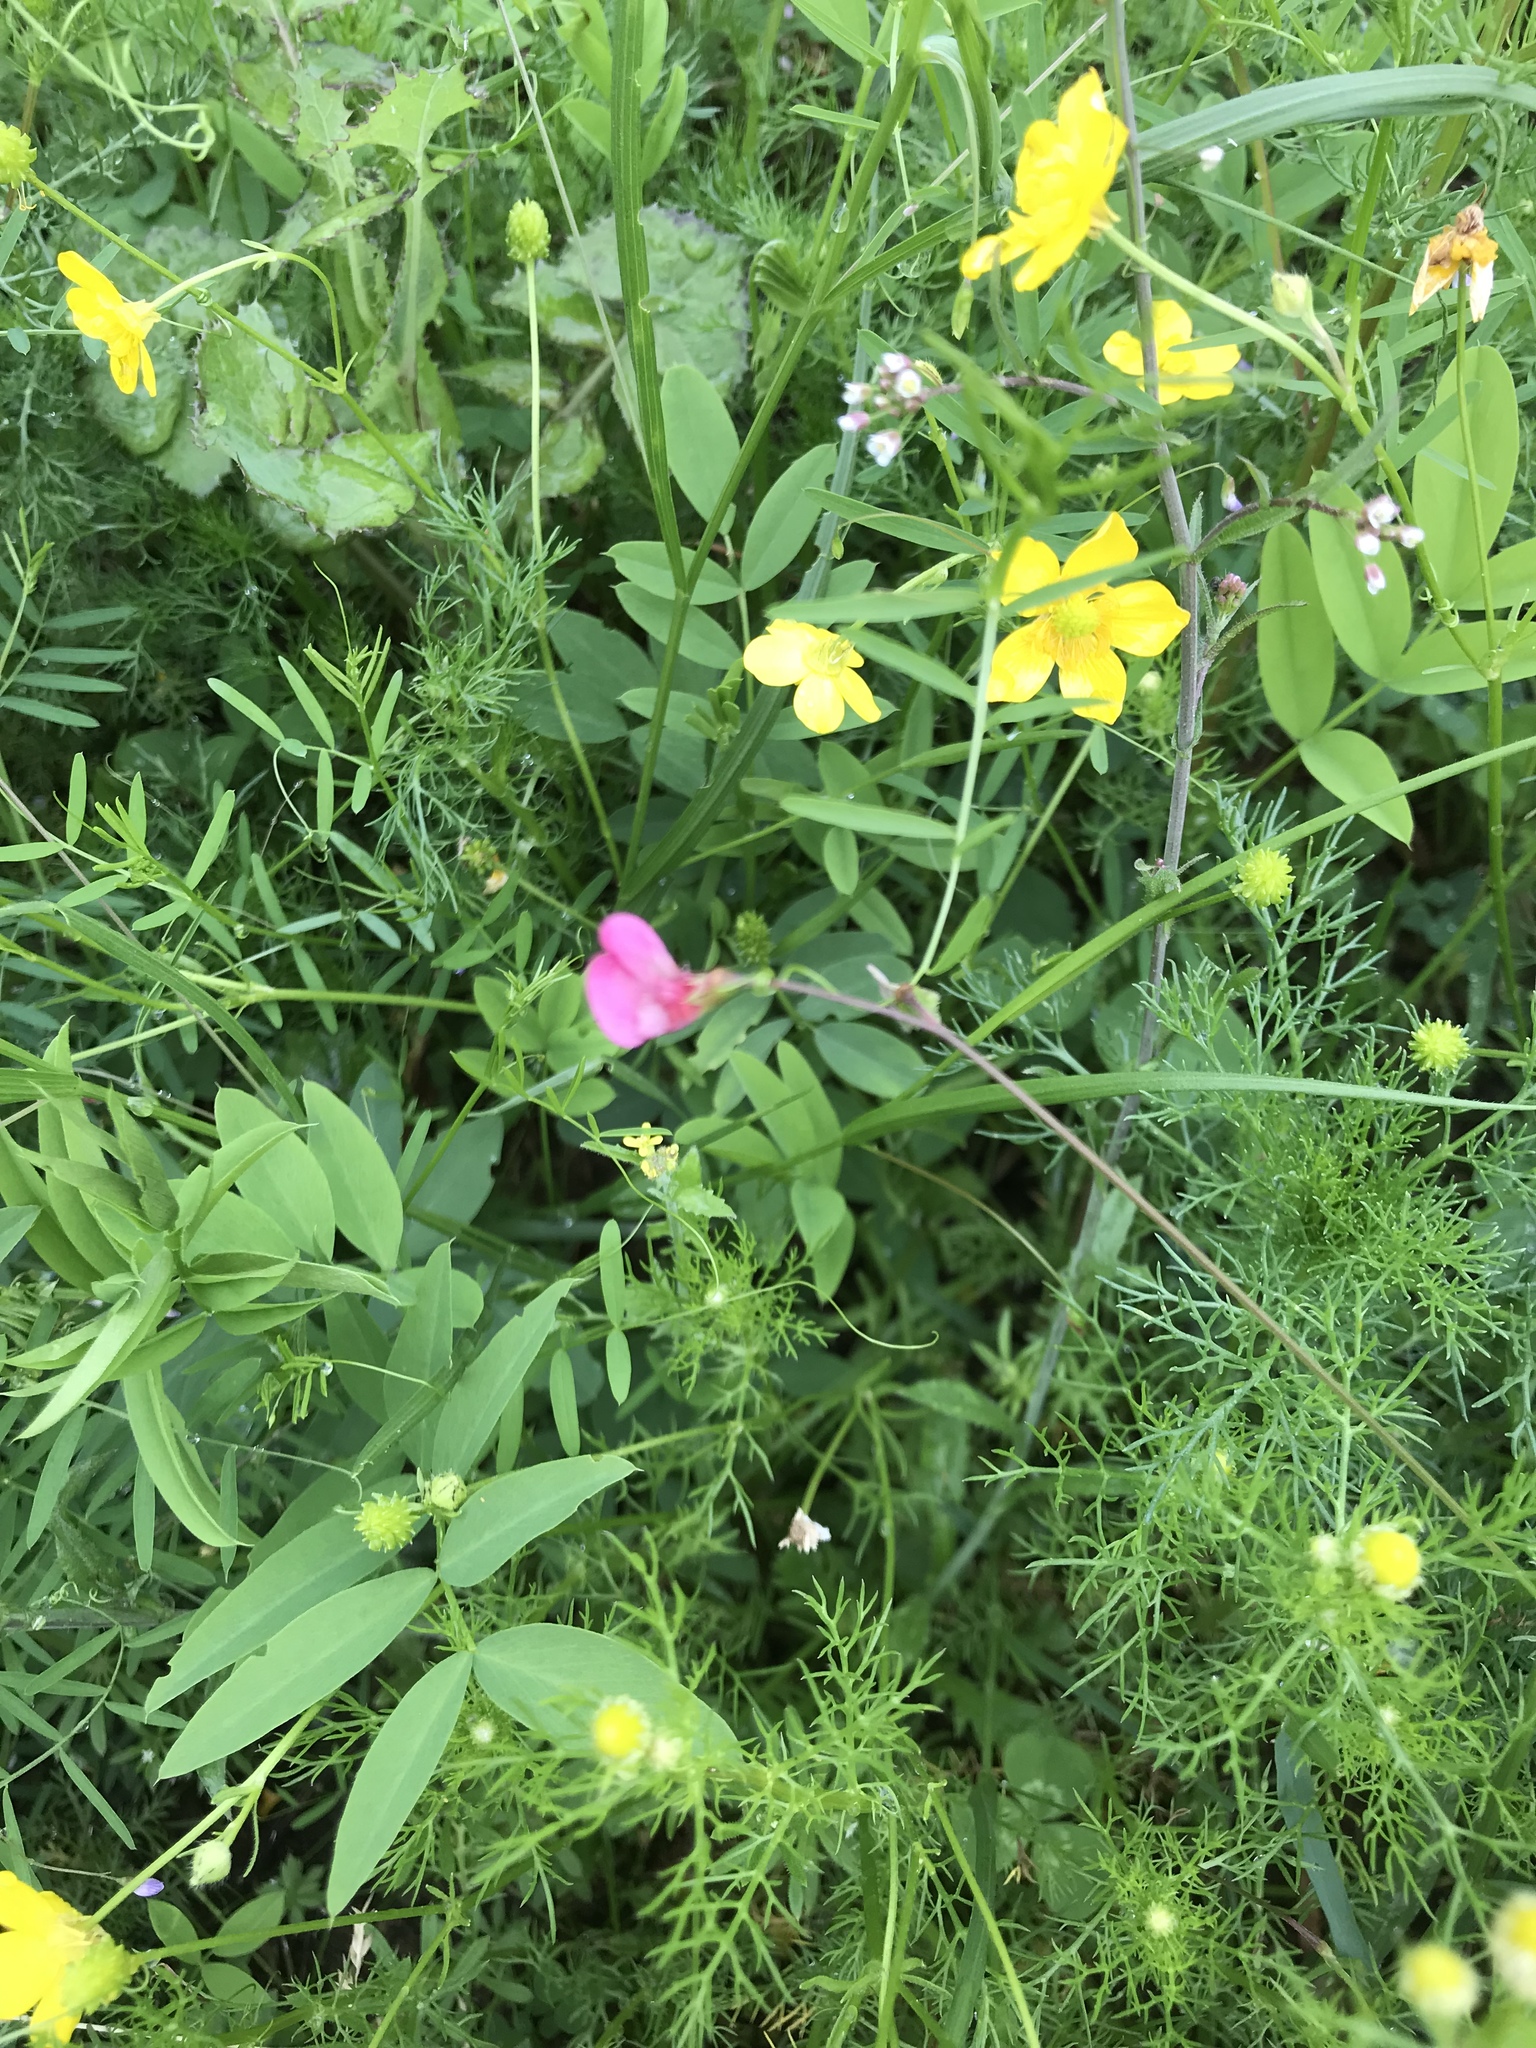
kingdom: Plantae
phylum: Tracheophyta
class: Magnoliopsida
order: Fabales
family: Fabaceae
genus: Lathyrus
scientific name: Lathyrus nissolia
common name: Grass vetchling
